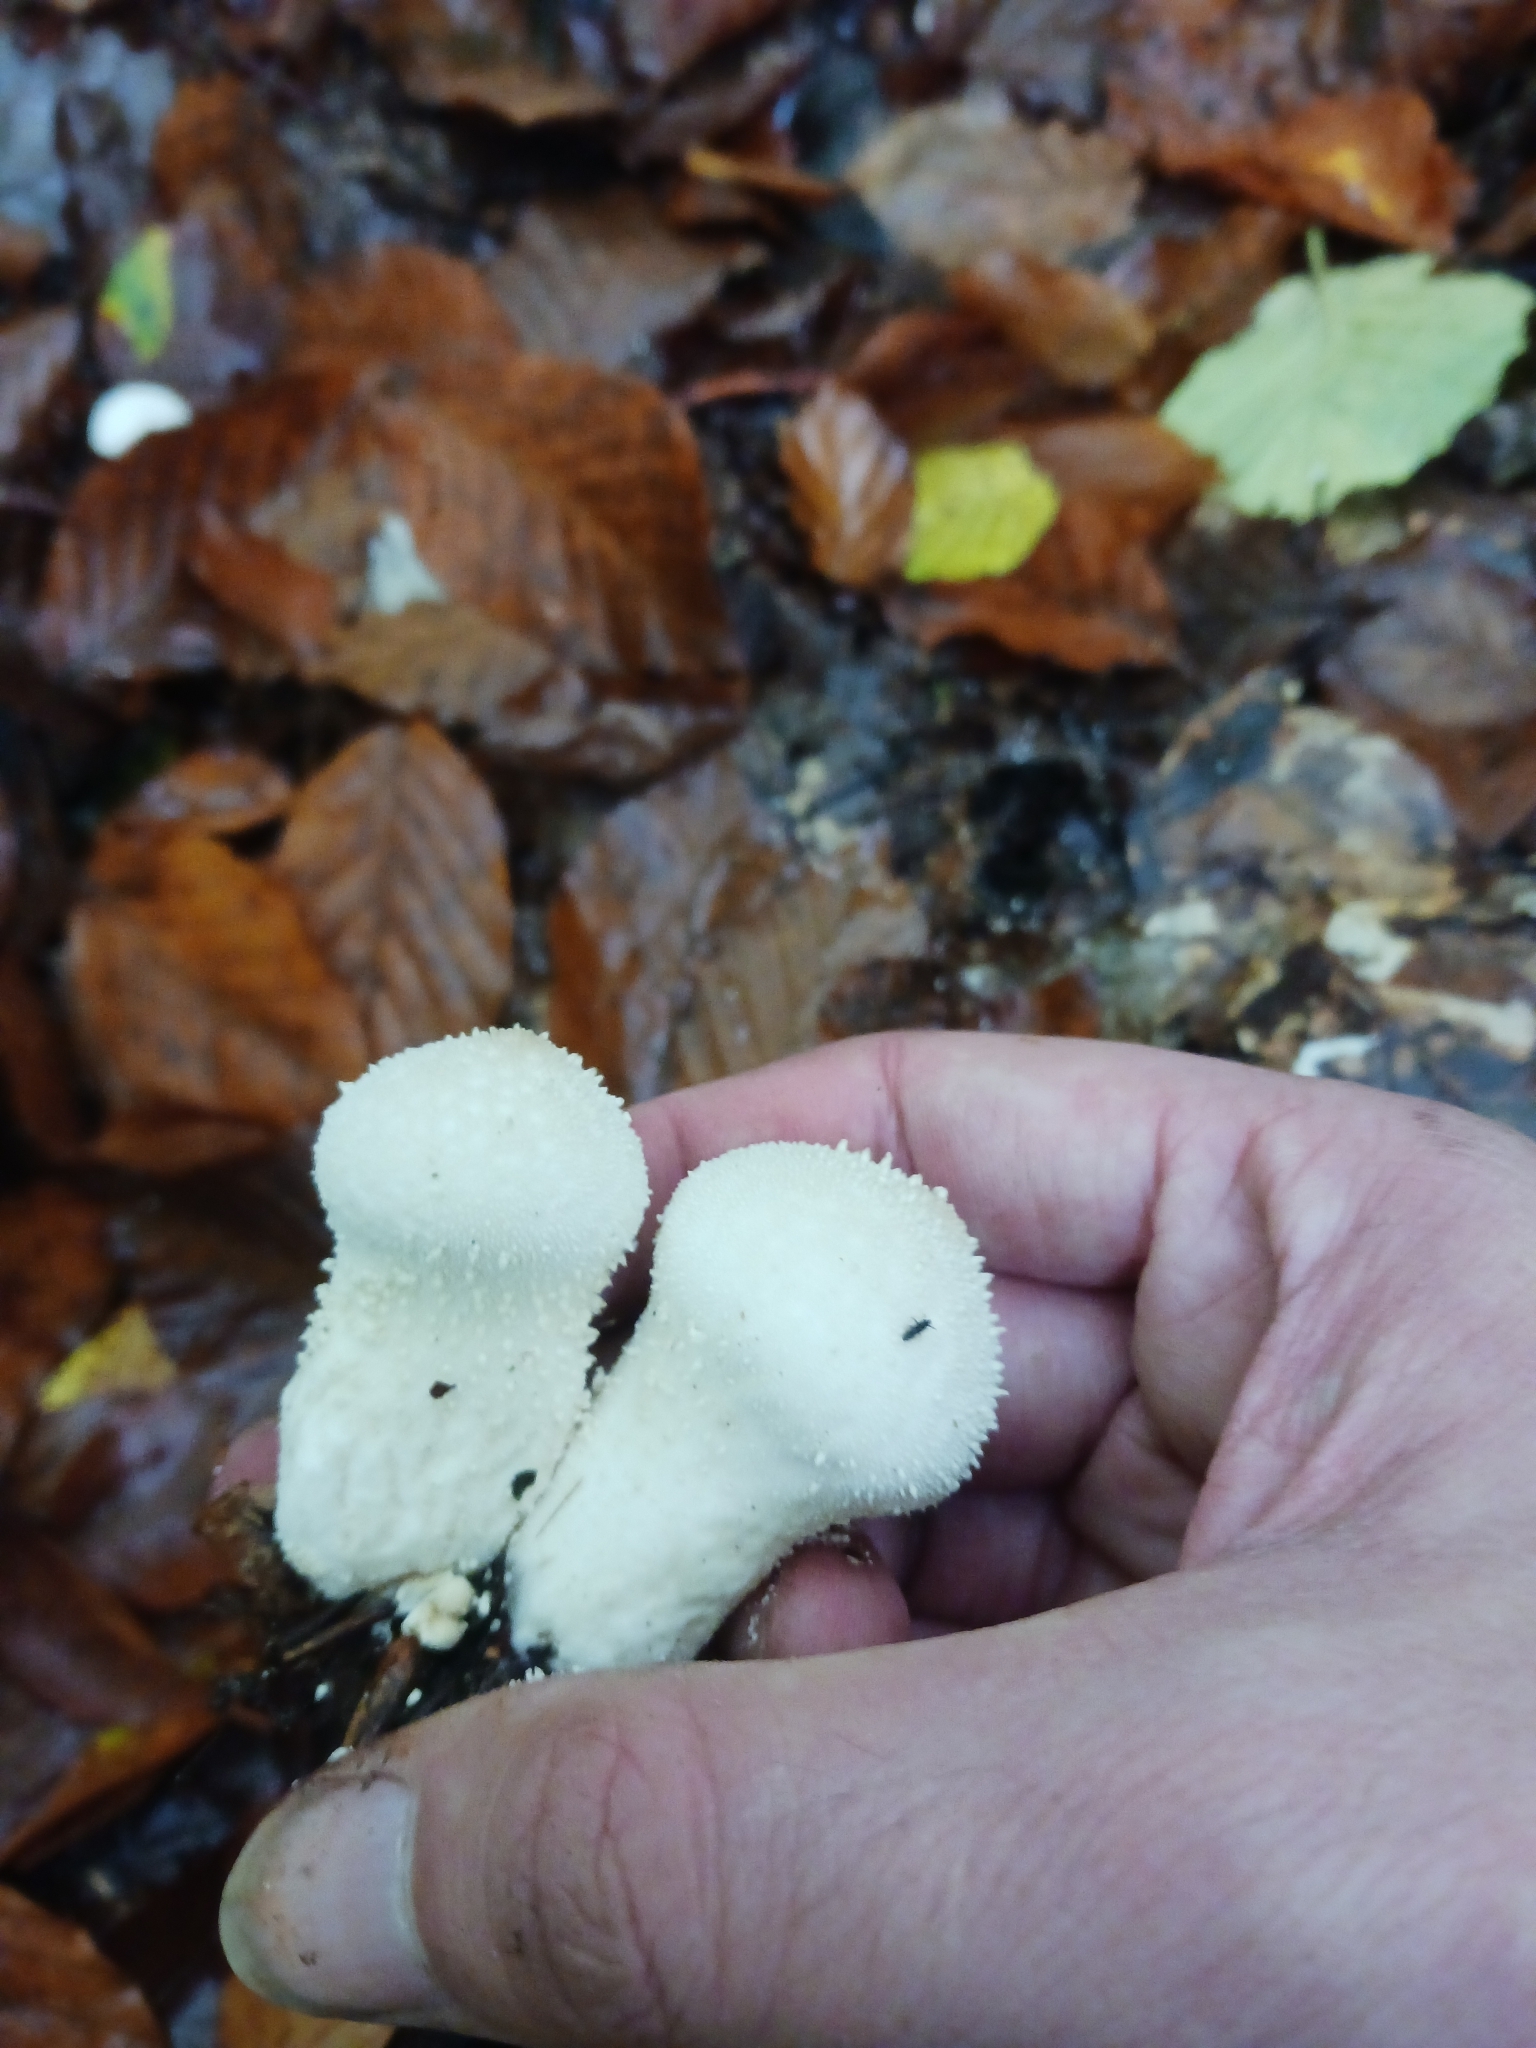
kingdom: Fungi
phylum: Basidiomycota
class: Agaricomycetes
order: Agaricales
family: Lycoperdaceae
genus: Lycoperdon
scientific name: Lycoperdon perlatum
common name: Common puffball
